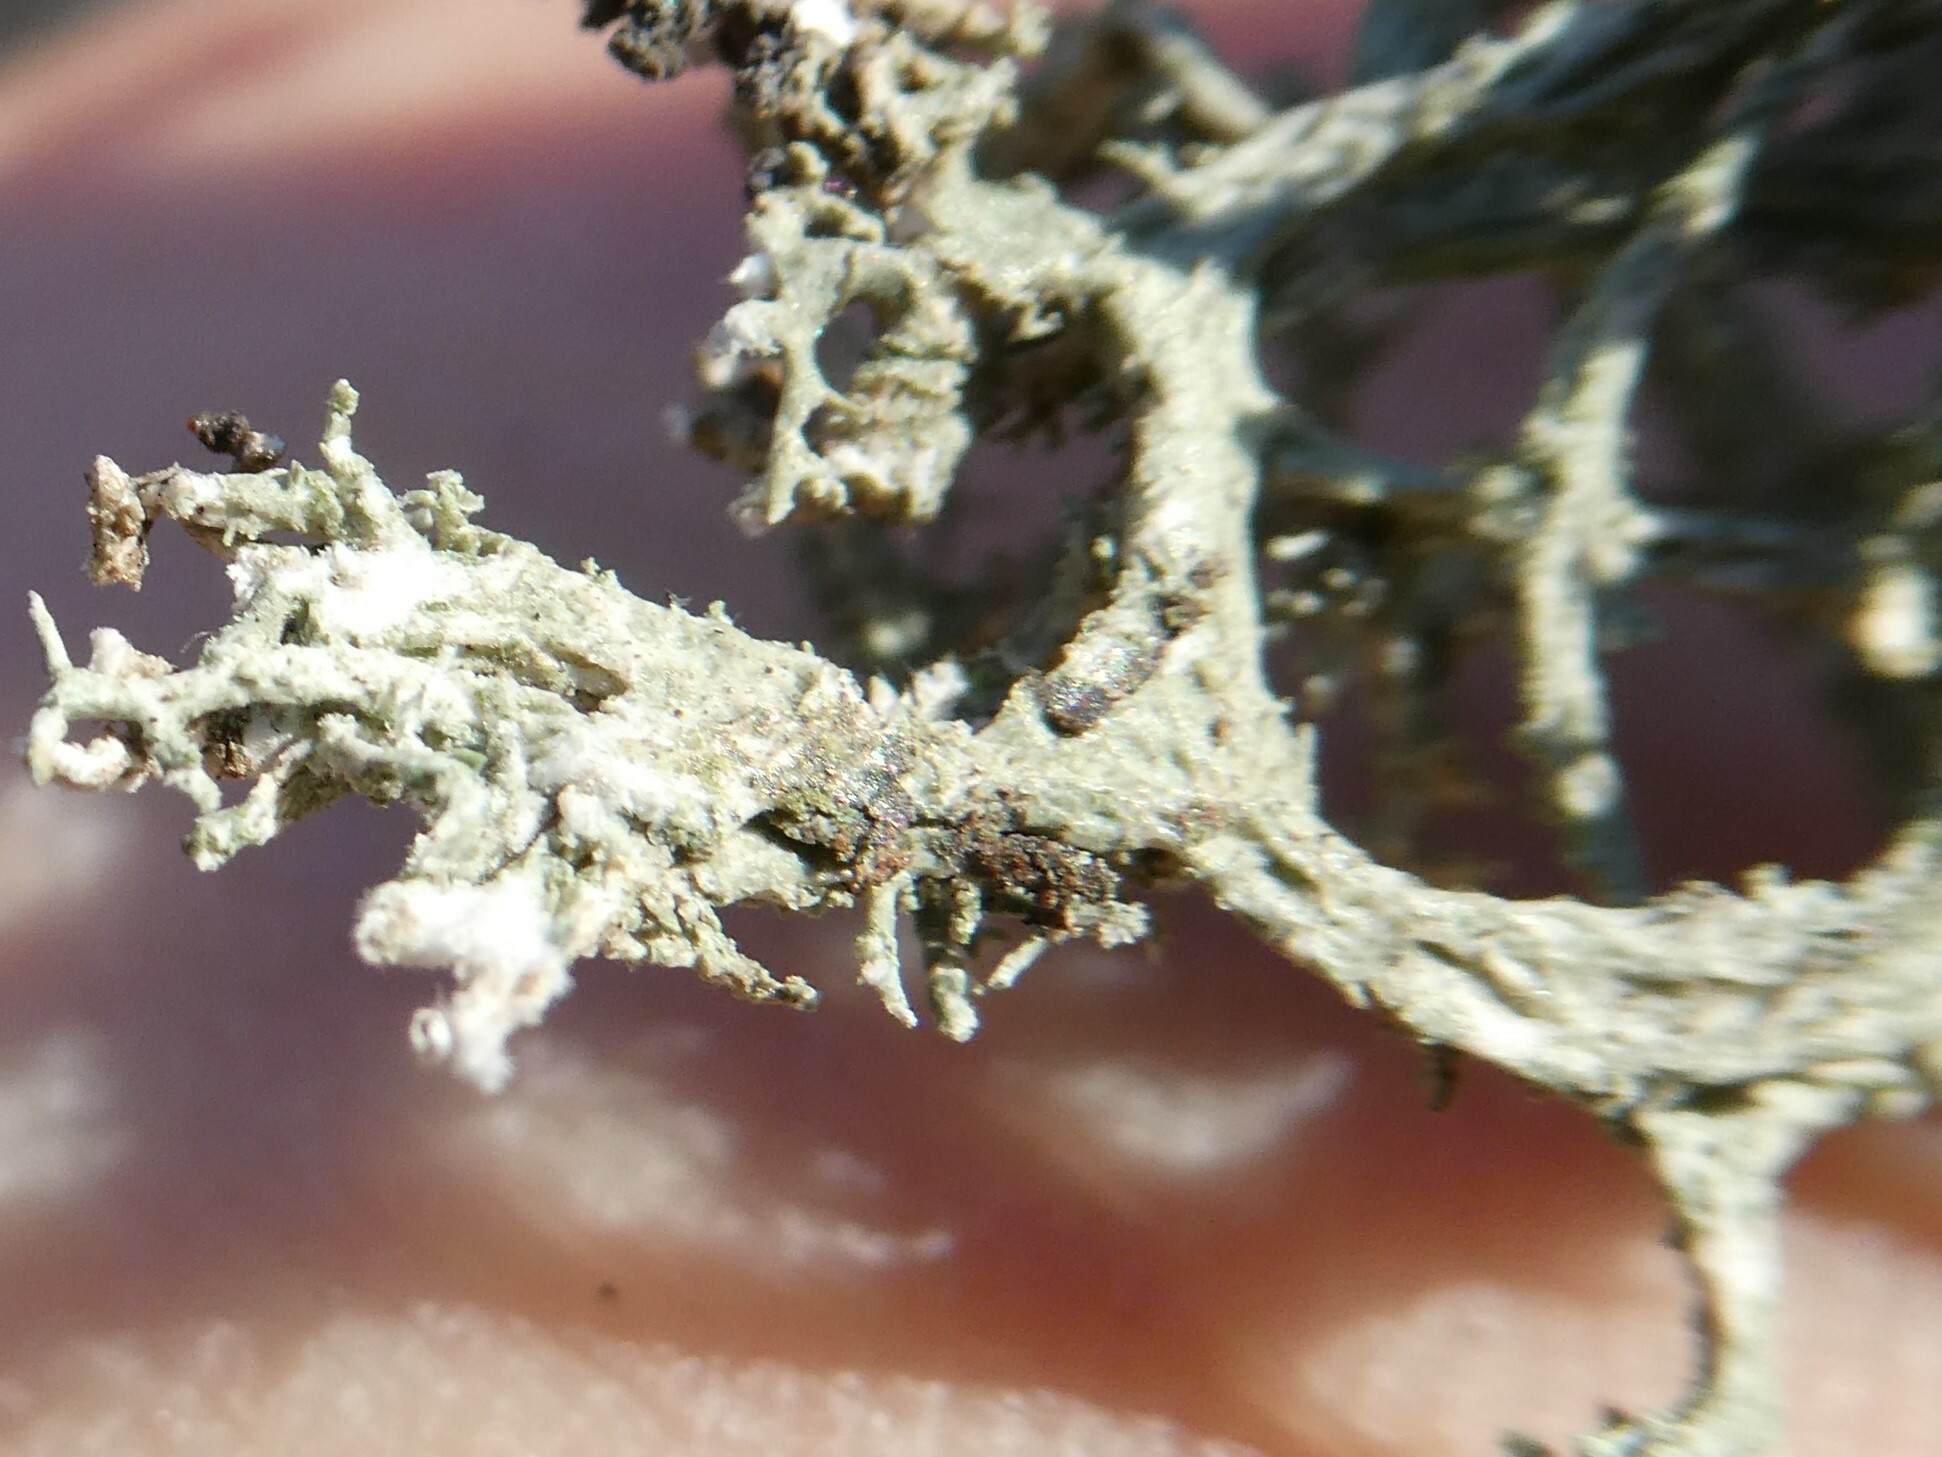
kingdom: Fungi
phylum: Ascomycota
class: Lecanoromycetes
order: Lecanorales
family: Parmeliaceae
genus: Evernia
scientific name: Evernia mesomorpha
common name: Boreal oak moss lichen
